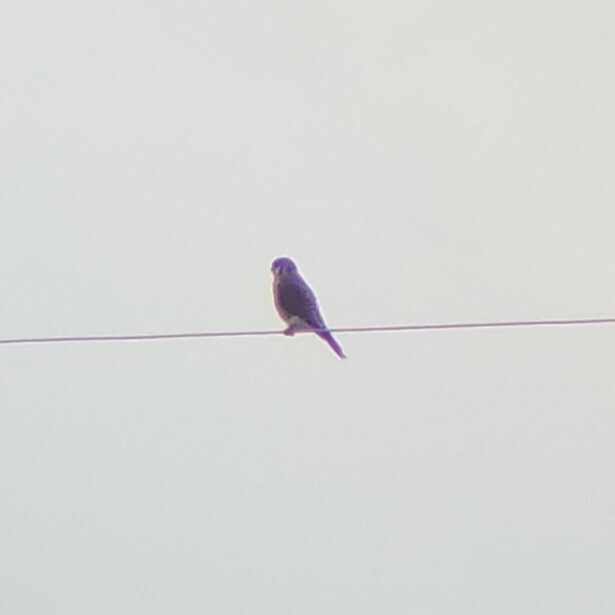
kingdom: Animalia
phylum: Chordata
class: Aves
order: Falconiformes
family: Falconidae
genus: Falco
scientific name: Falco sparverius
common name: American kestrel
